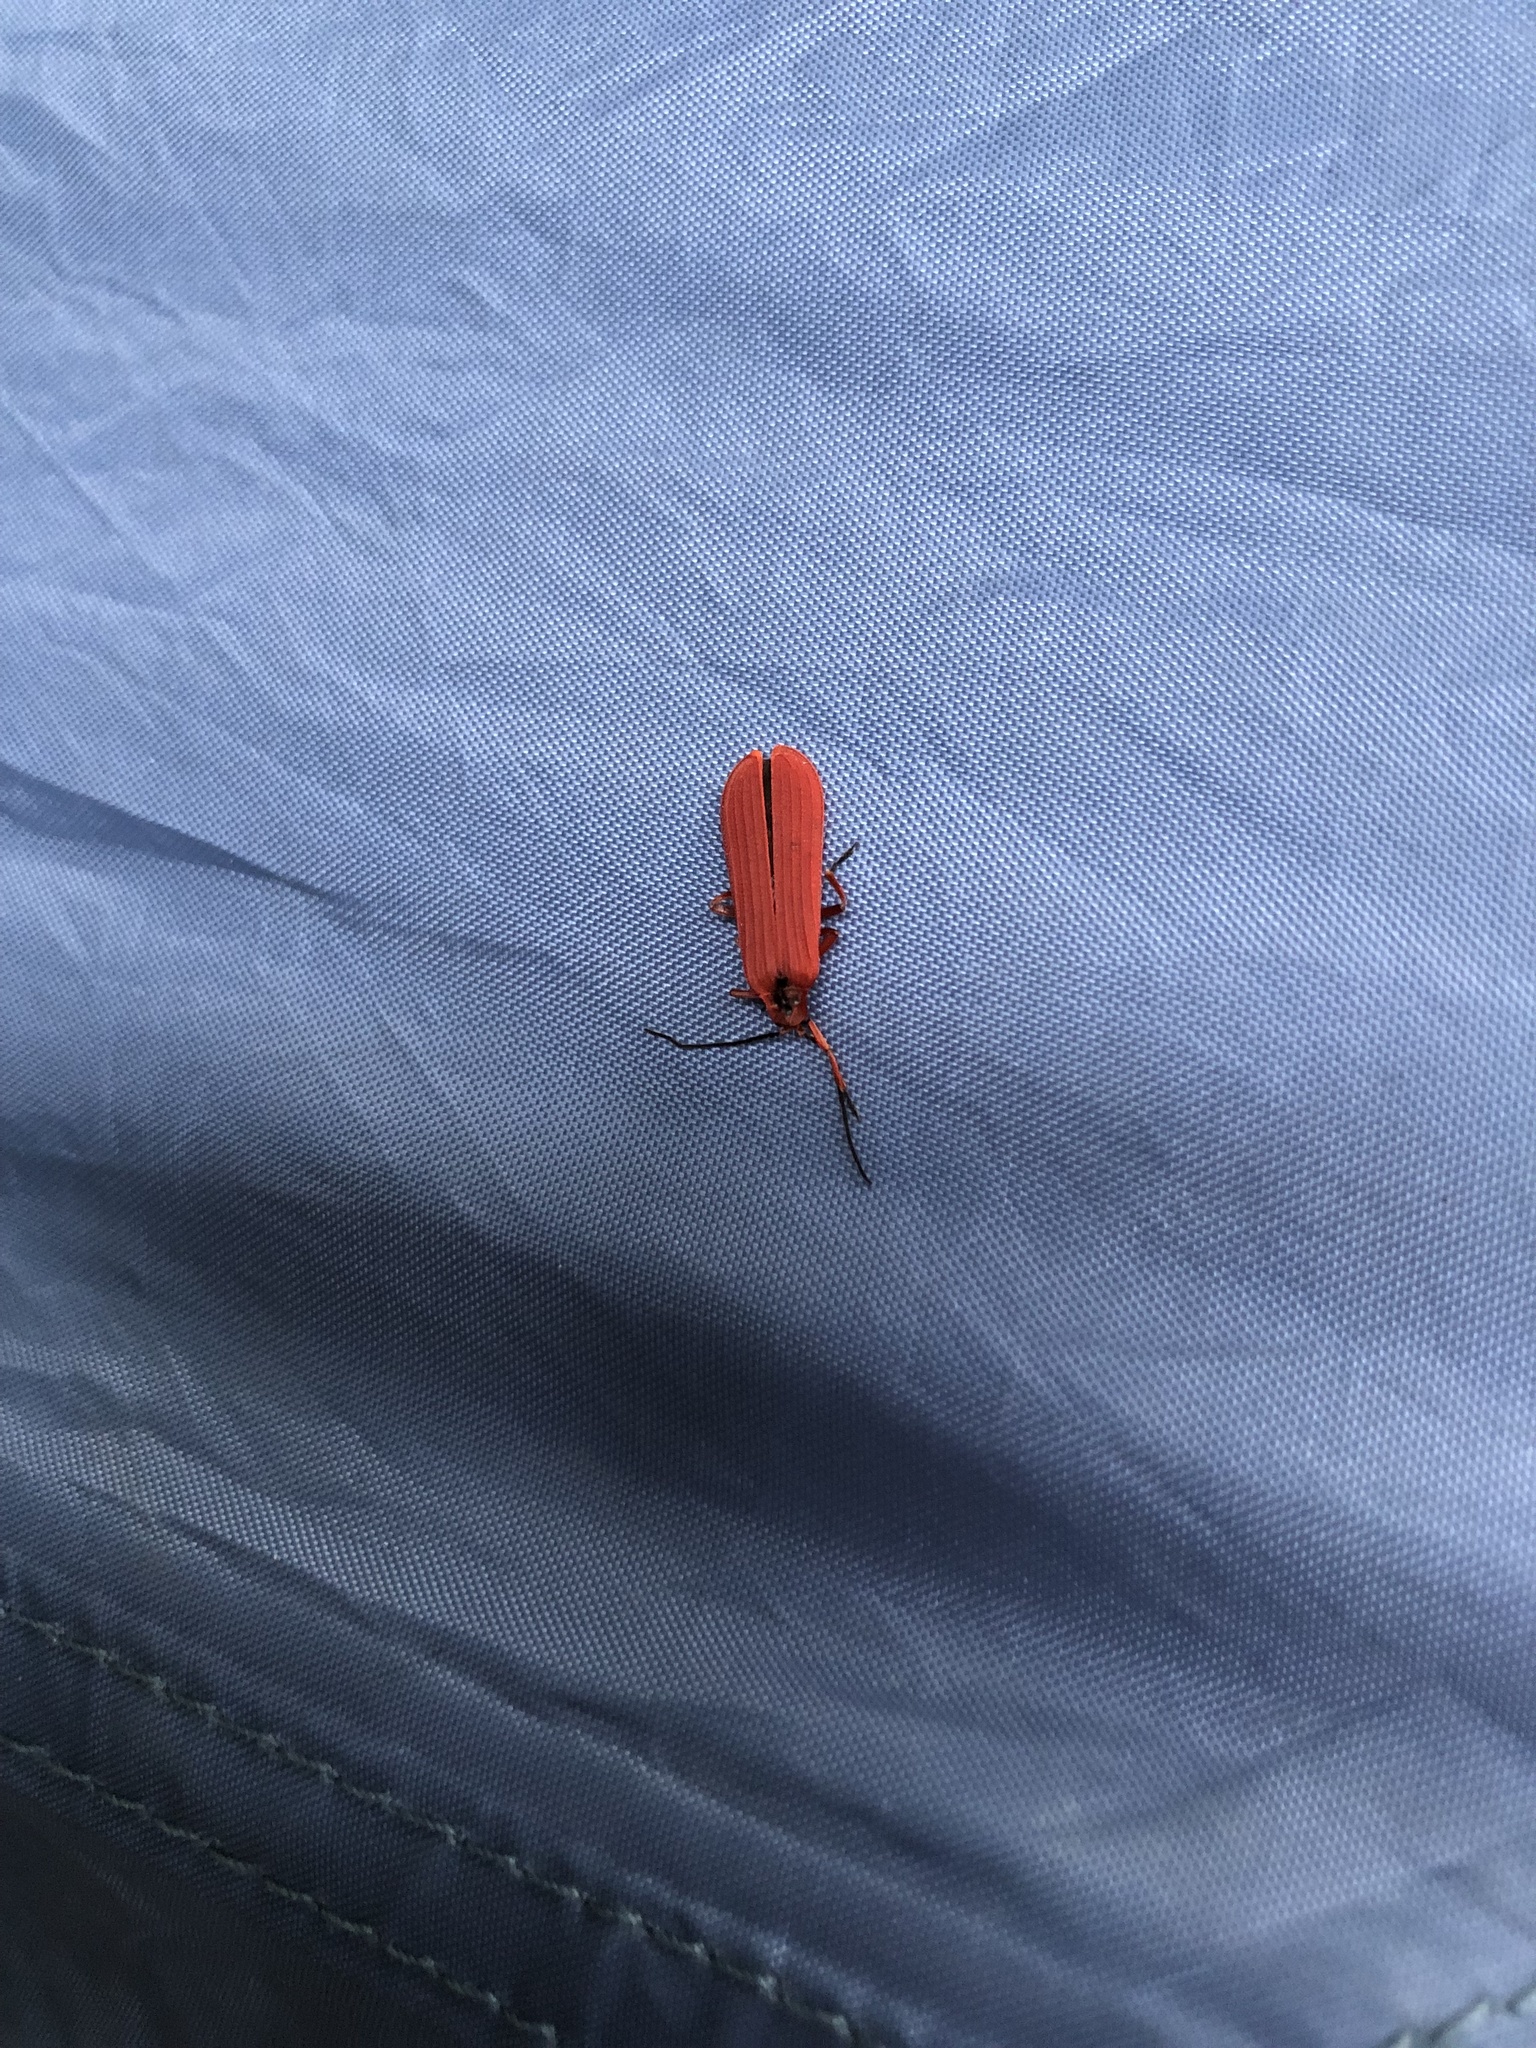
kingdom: Animalia
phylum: Arthropoda
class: Insecta
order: Coleoptera
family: Lycidae
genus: Dictyoptera
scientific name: Dictyoptera simplicipes
